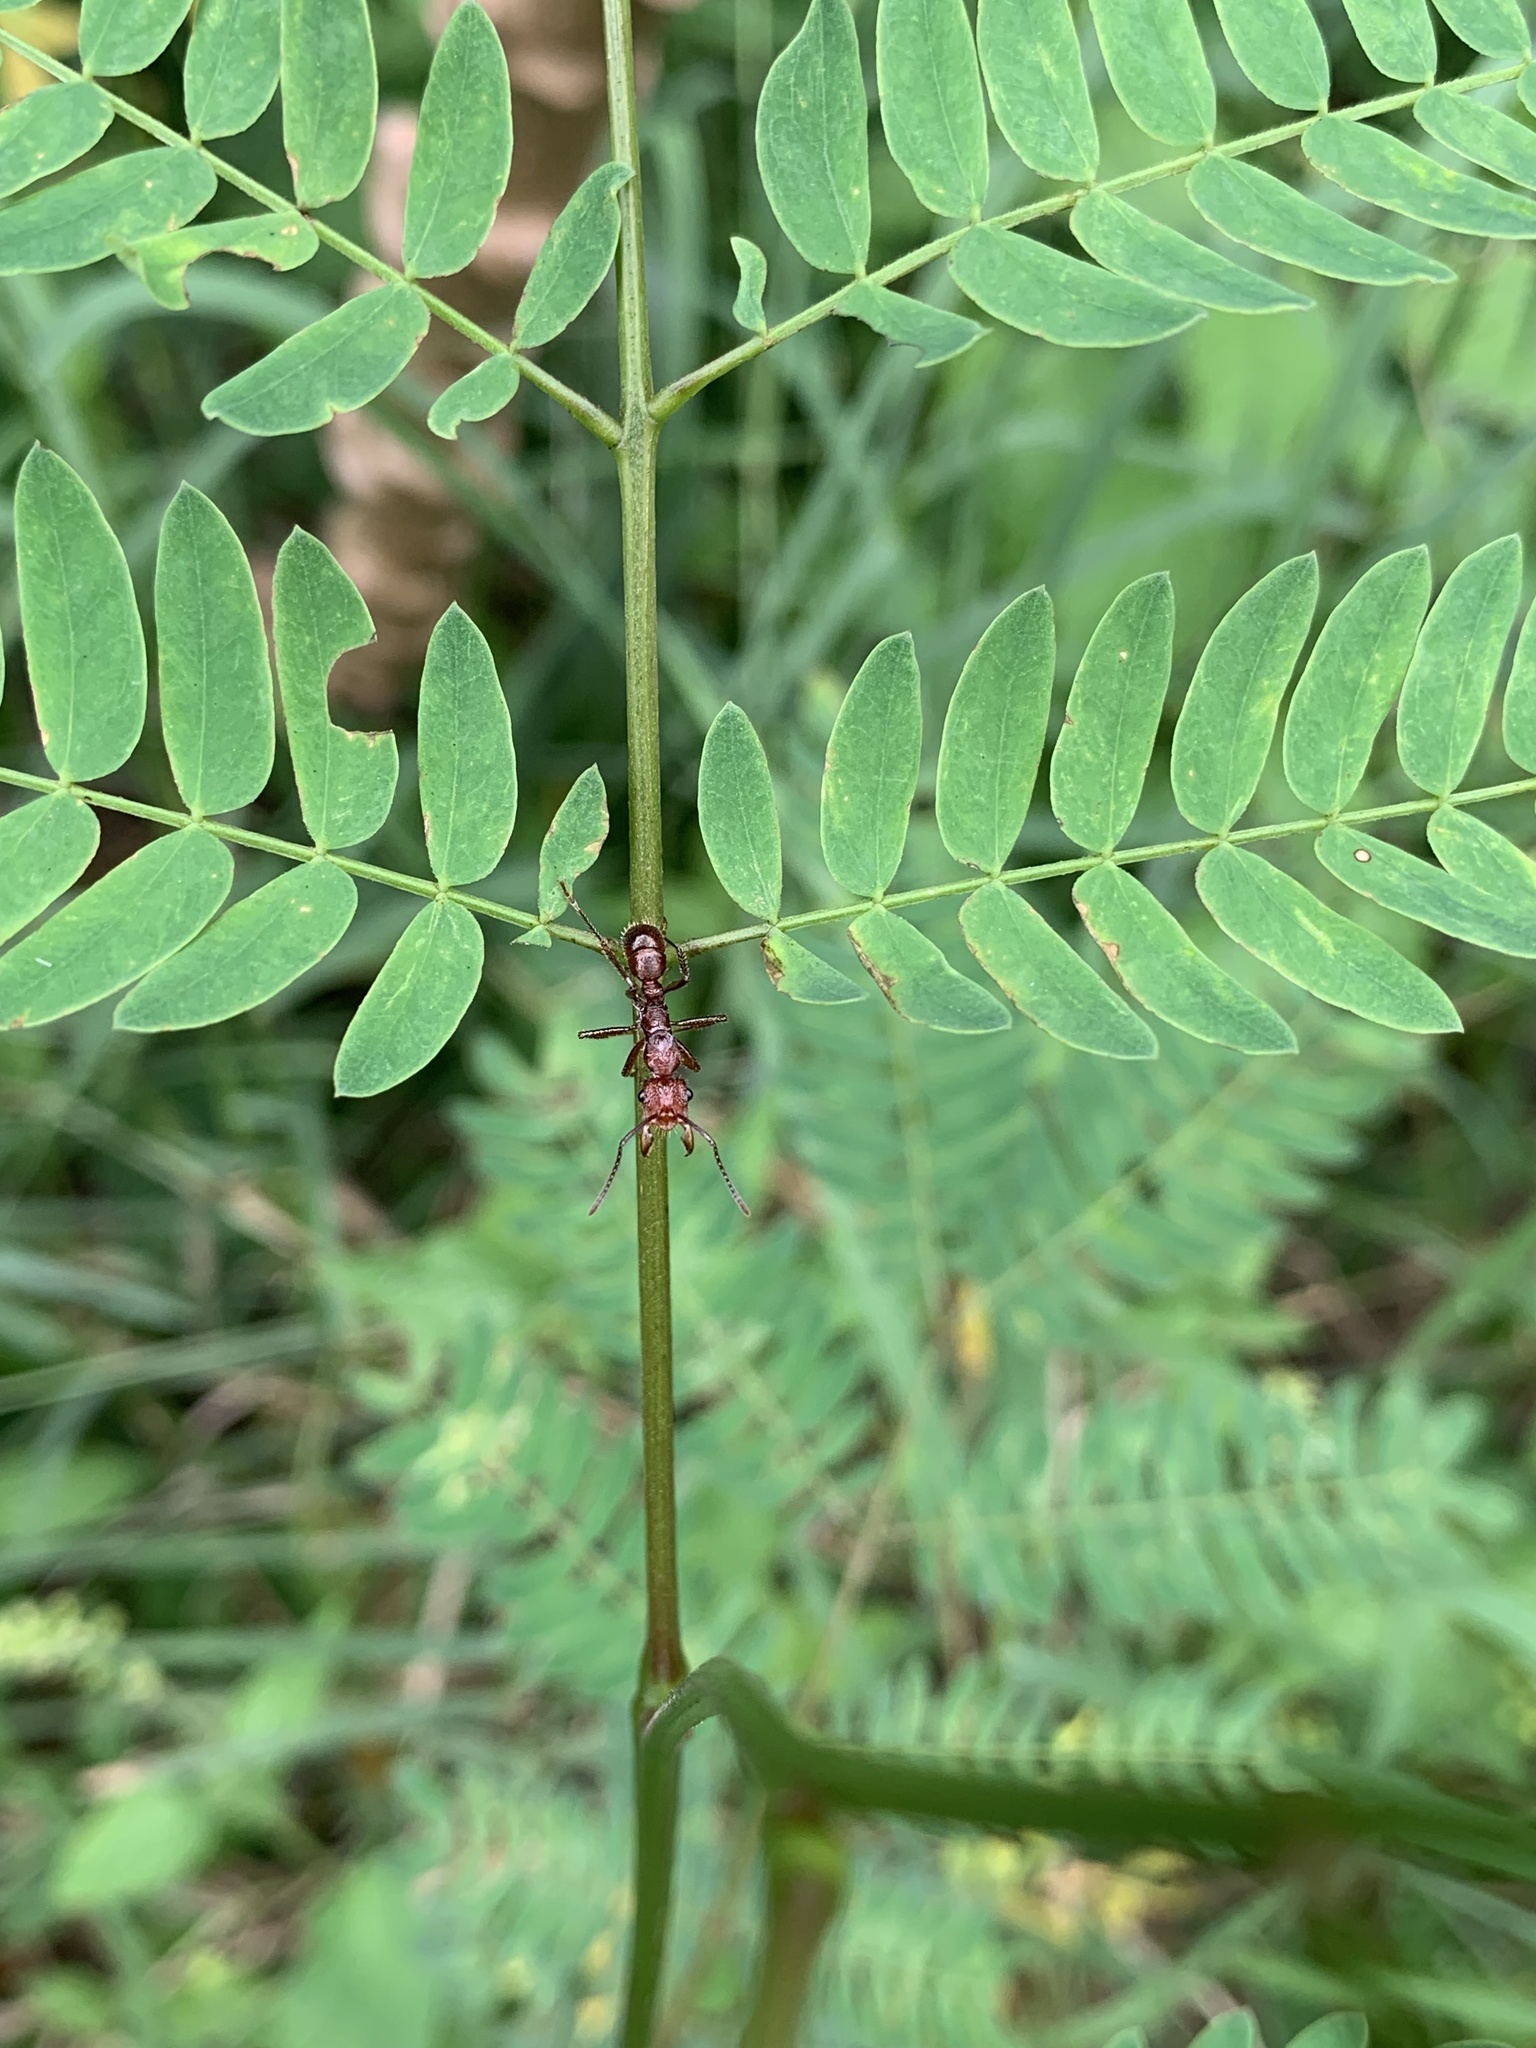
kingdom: Animalia
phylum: Arthropoda
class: Insecta
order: Hymenoptera
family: Formicidae
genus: Ectatomma
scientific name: Ectatomma tuberculatum
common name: Ant
